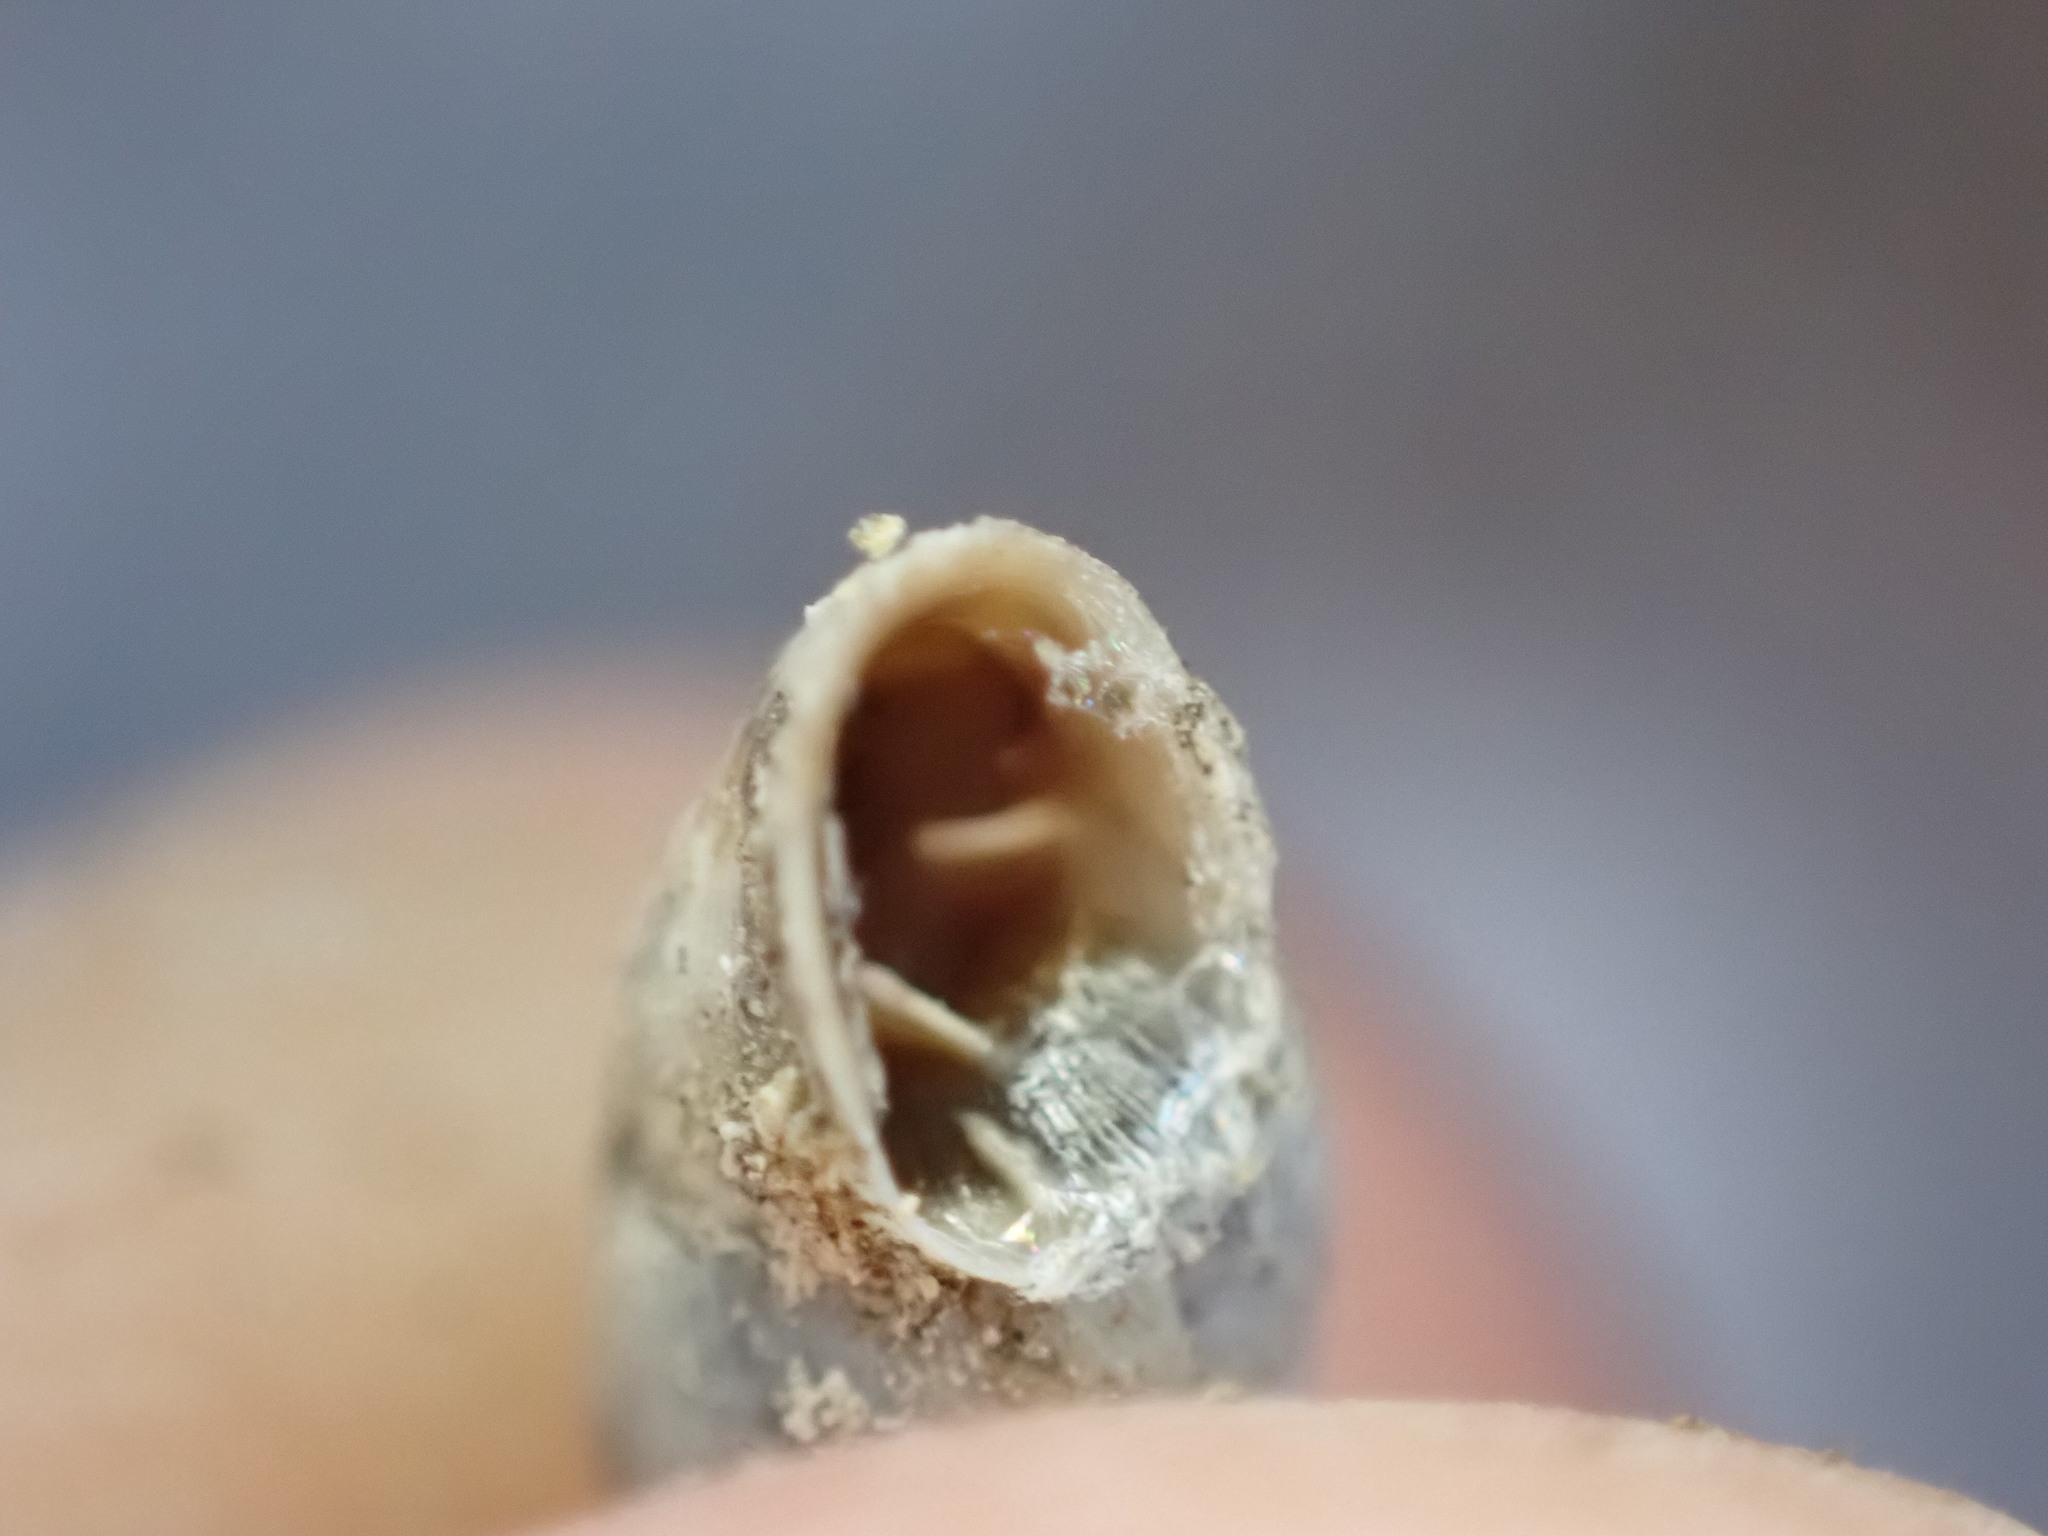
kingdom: Animalia
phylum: Mollusca
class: Gastropoda
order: Stylommatophora
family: Chondrinidae
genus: Solatopupa
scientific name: Solatopupa similis
